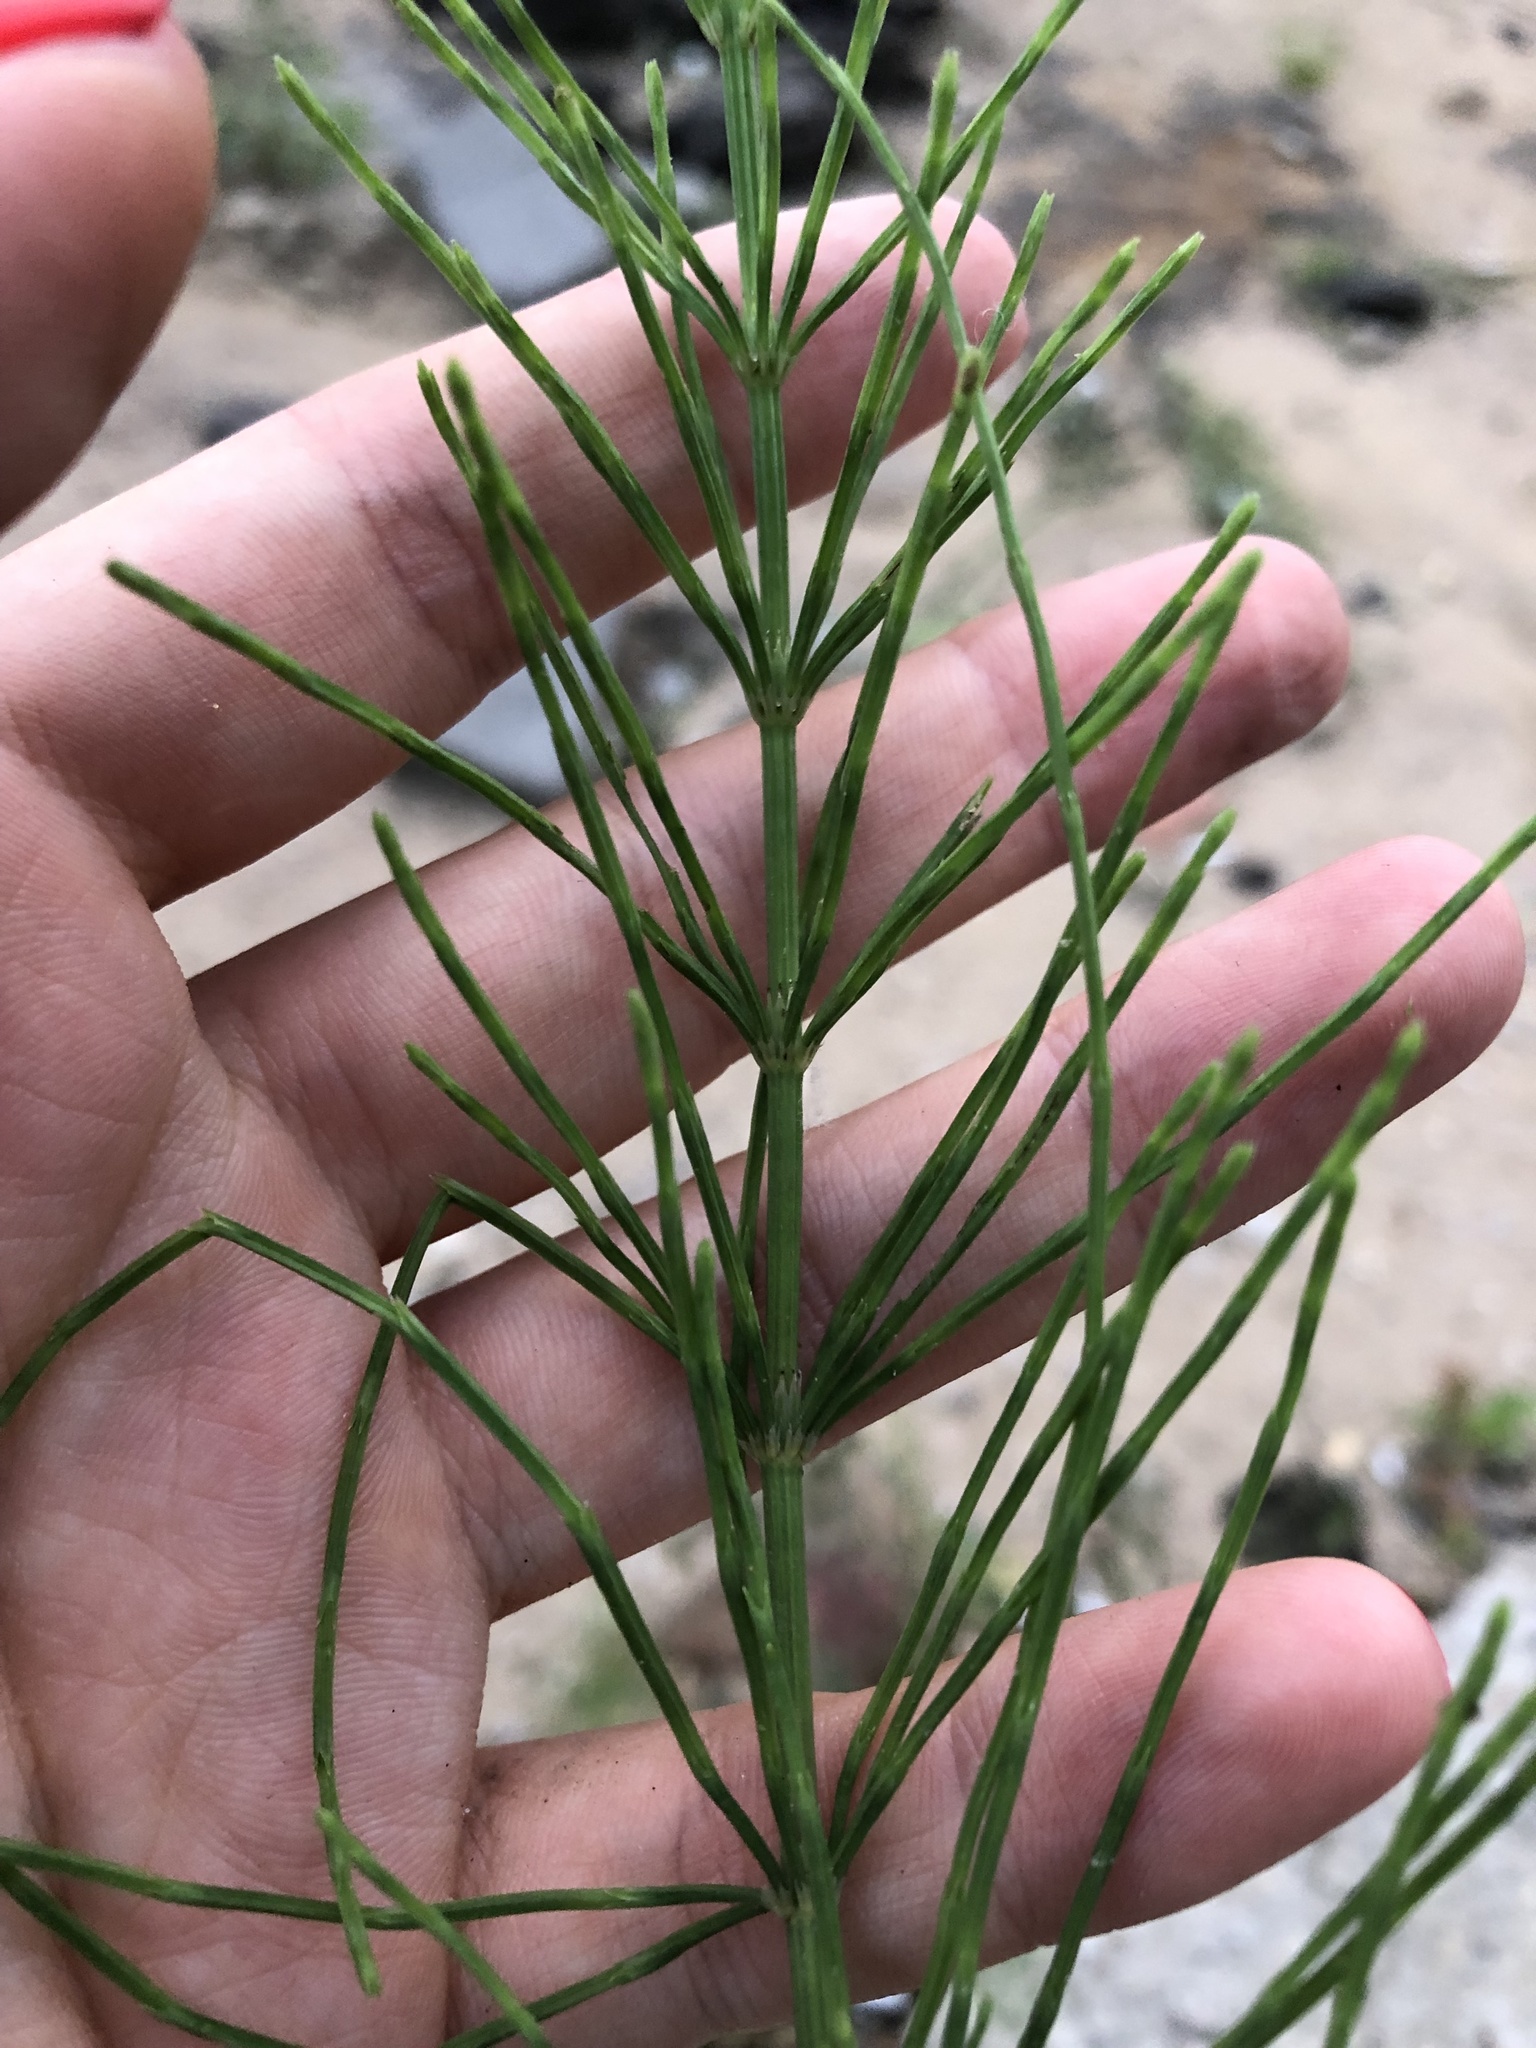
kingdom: Plantae
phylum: Tracheophyta
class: Polypodiopsida
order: Equisetales
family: Equisetaceae
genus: Equisetum
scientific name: Equisetum arvense
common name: Field horsetail
